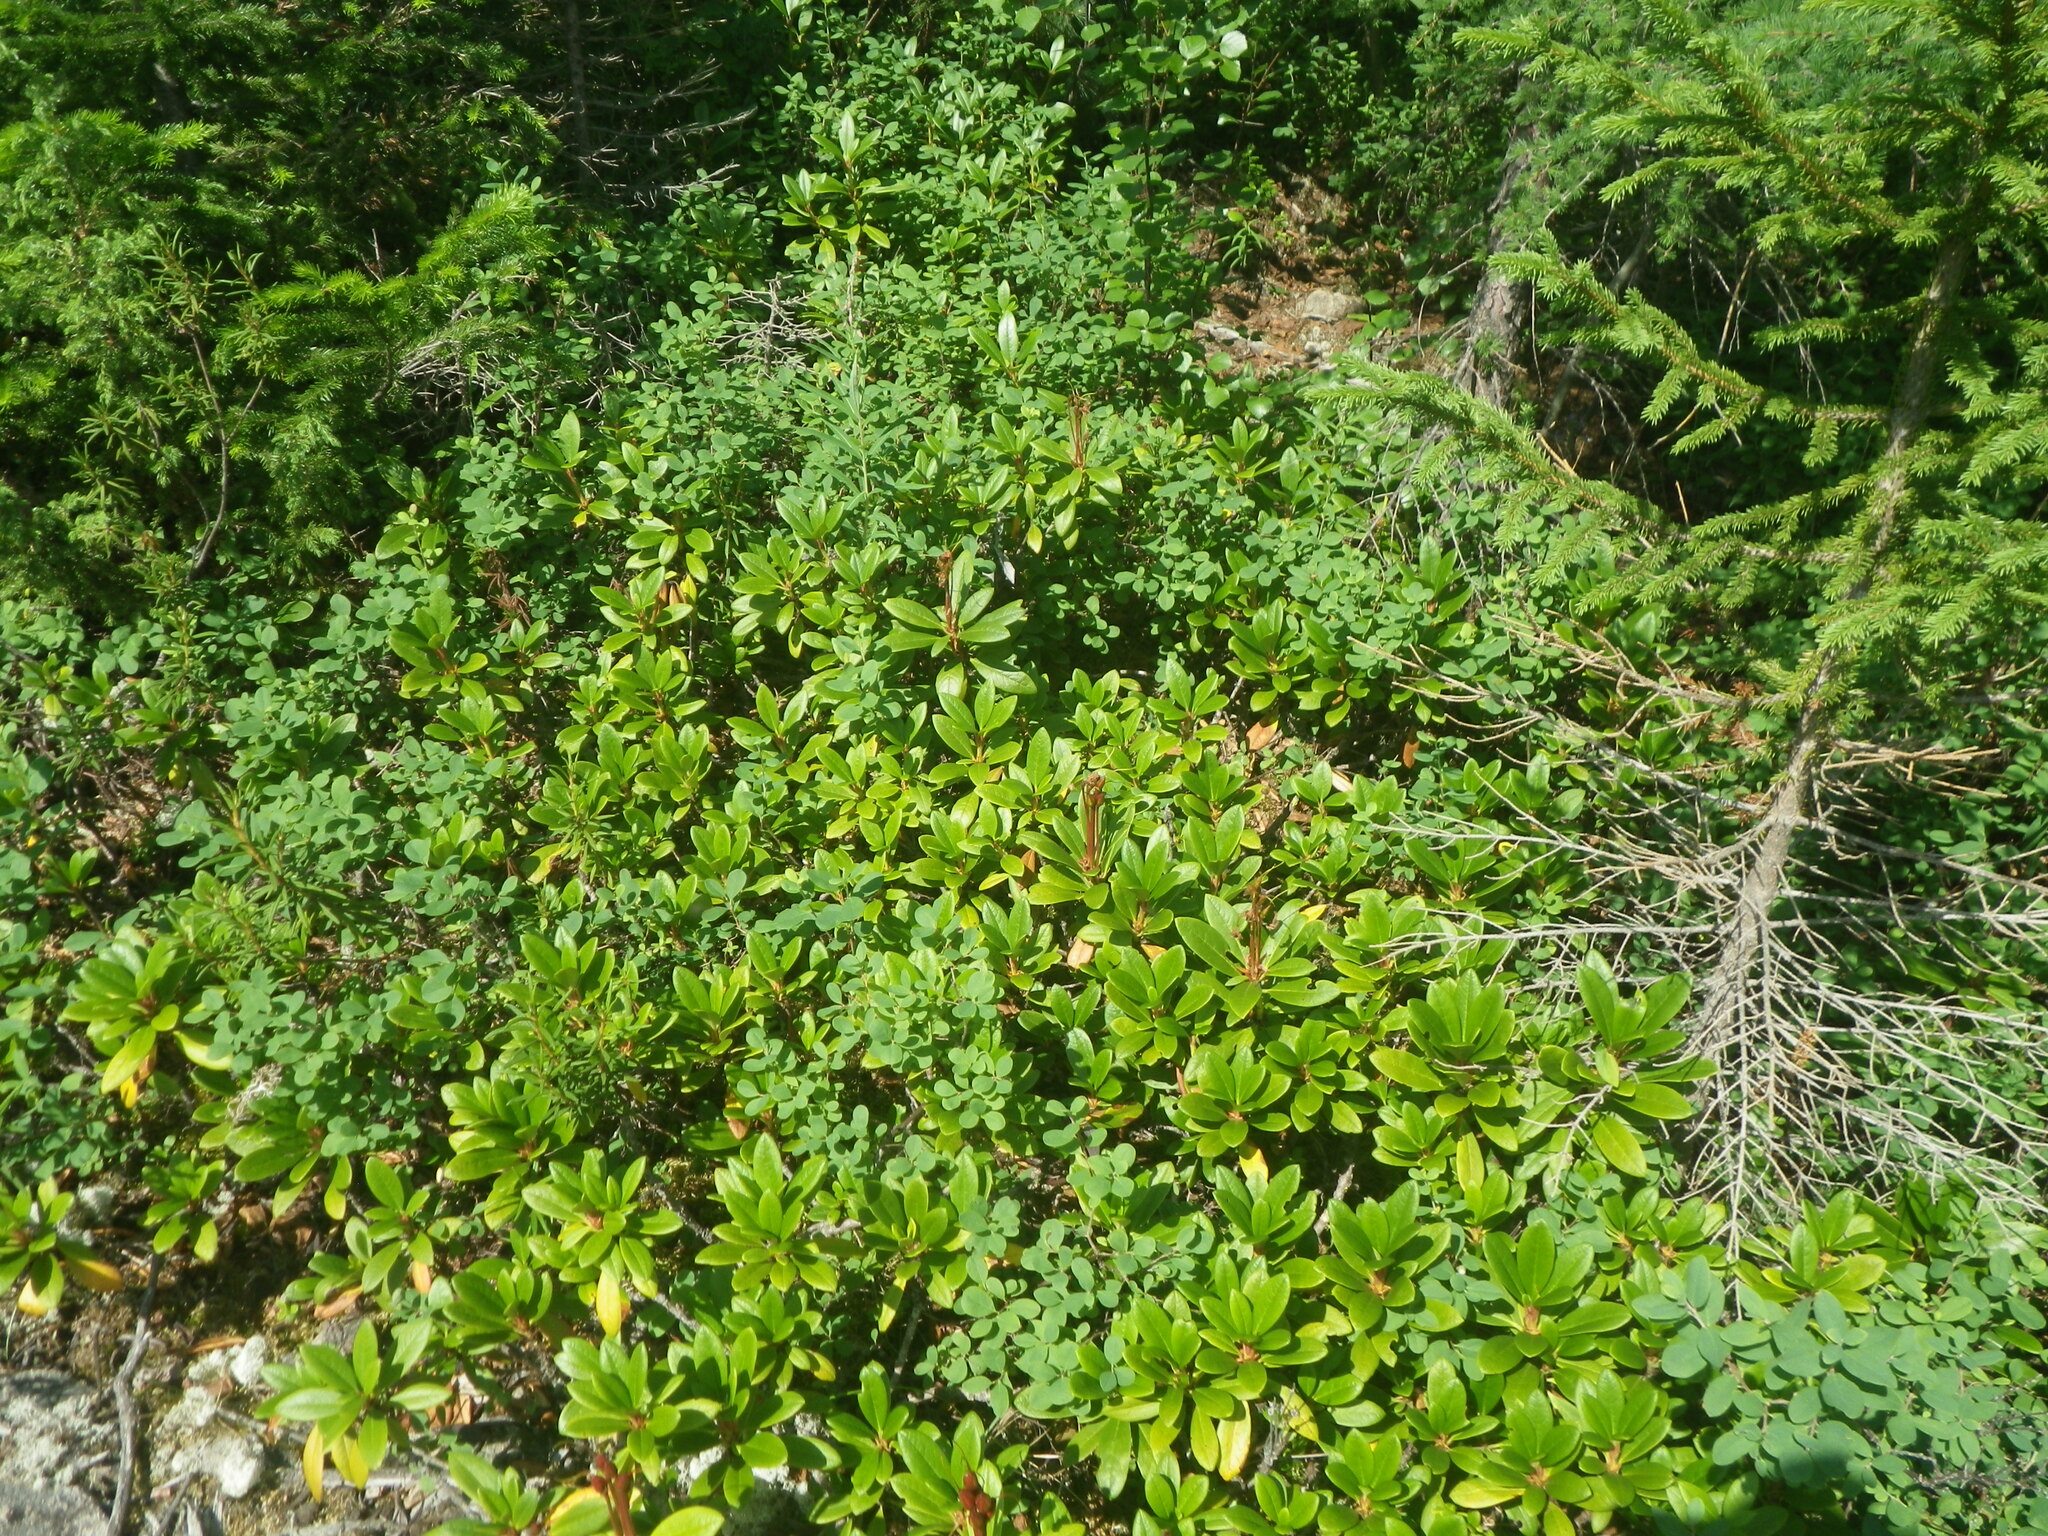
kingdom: Plantae
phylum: Tracheophyta
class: Magnoliopsida
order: Ericales
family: Ericaceae
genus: Vaccinium
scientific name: Vaccinium uliginosum
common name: Bog bilberry
